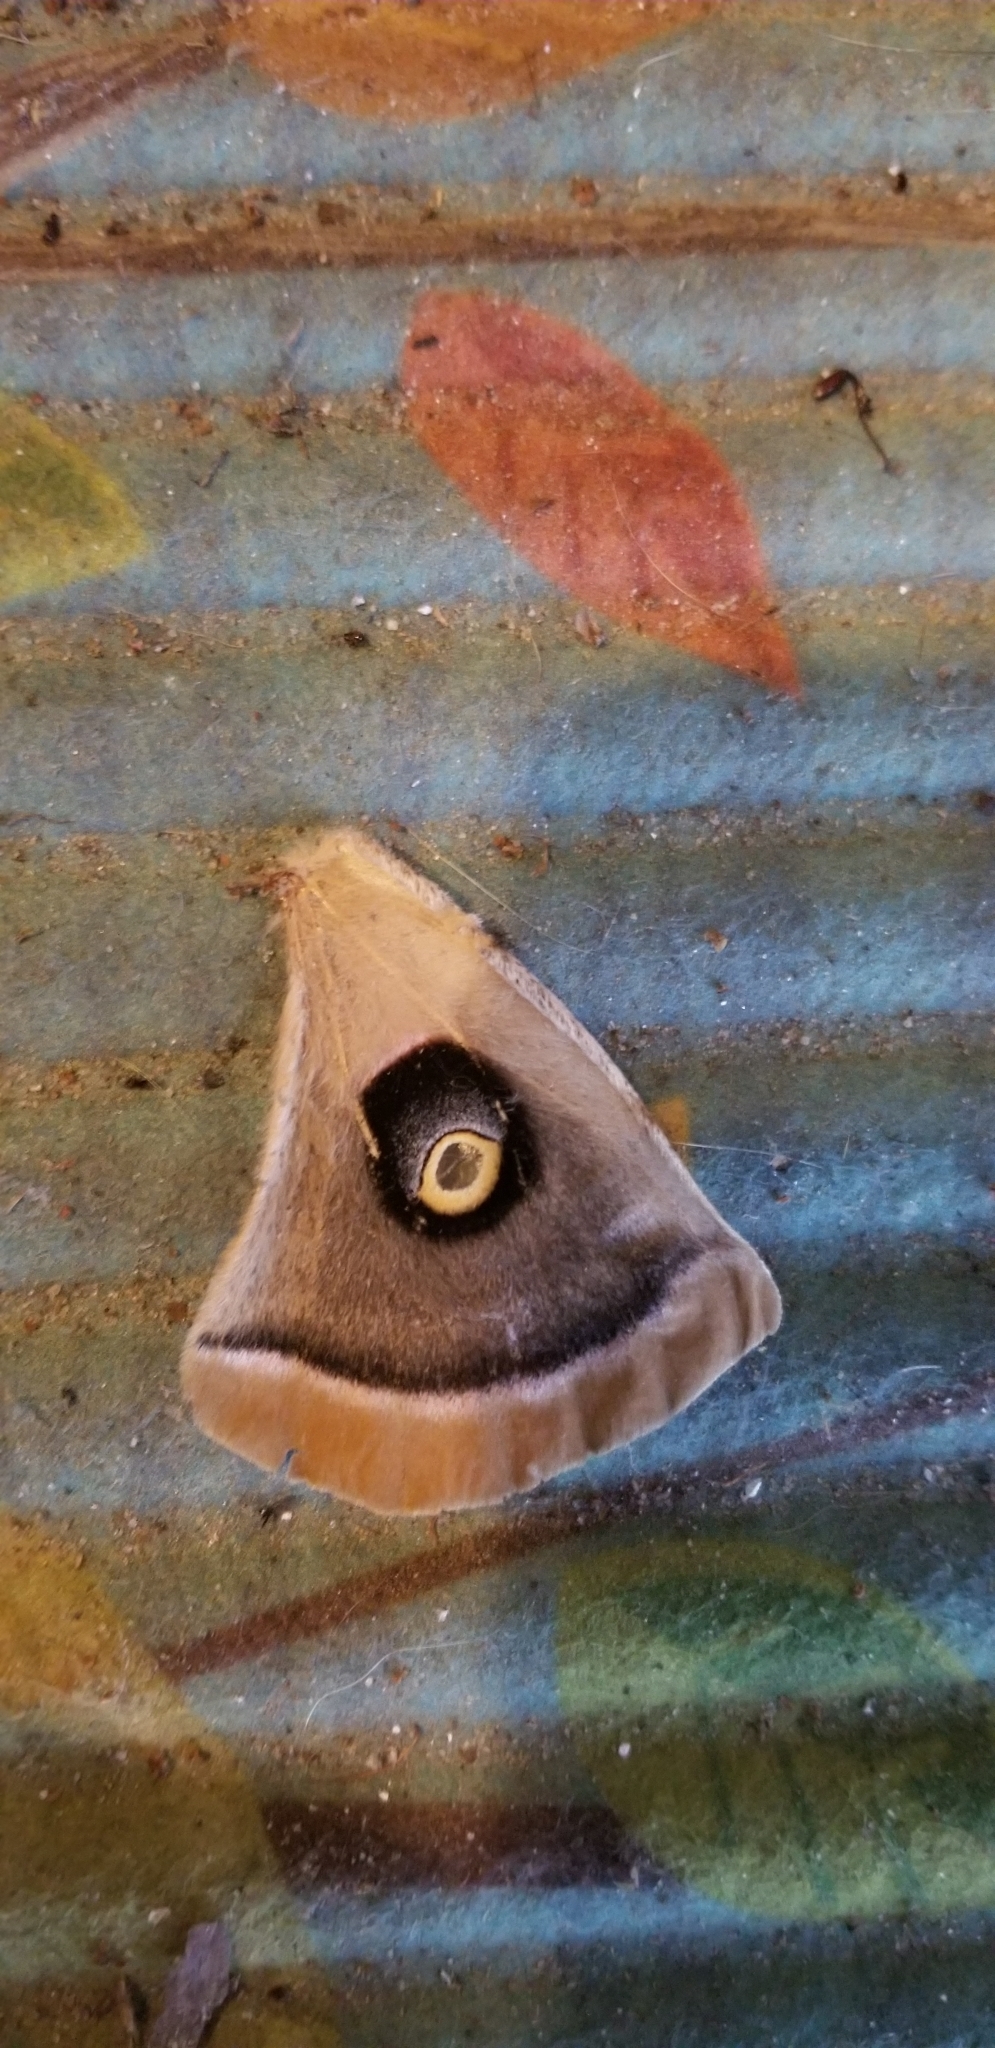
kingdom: Animalia
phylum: Arthropoda
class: Insecta
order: Lepidoptera
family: Saturniidae
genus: Antheraea
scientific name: Antheraea polyphemus
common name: Polyphemus moth
